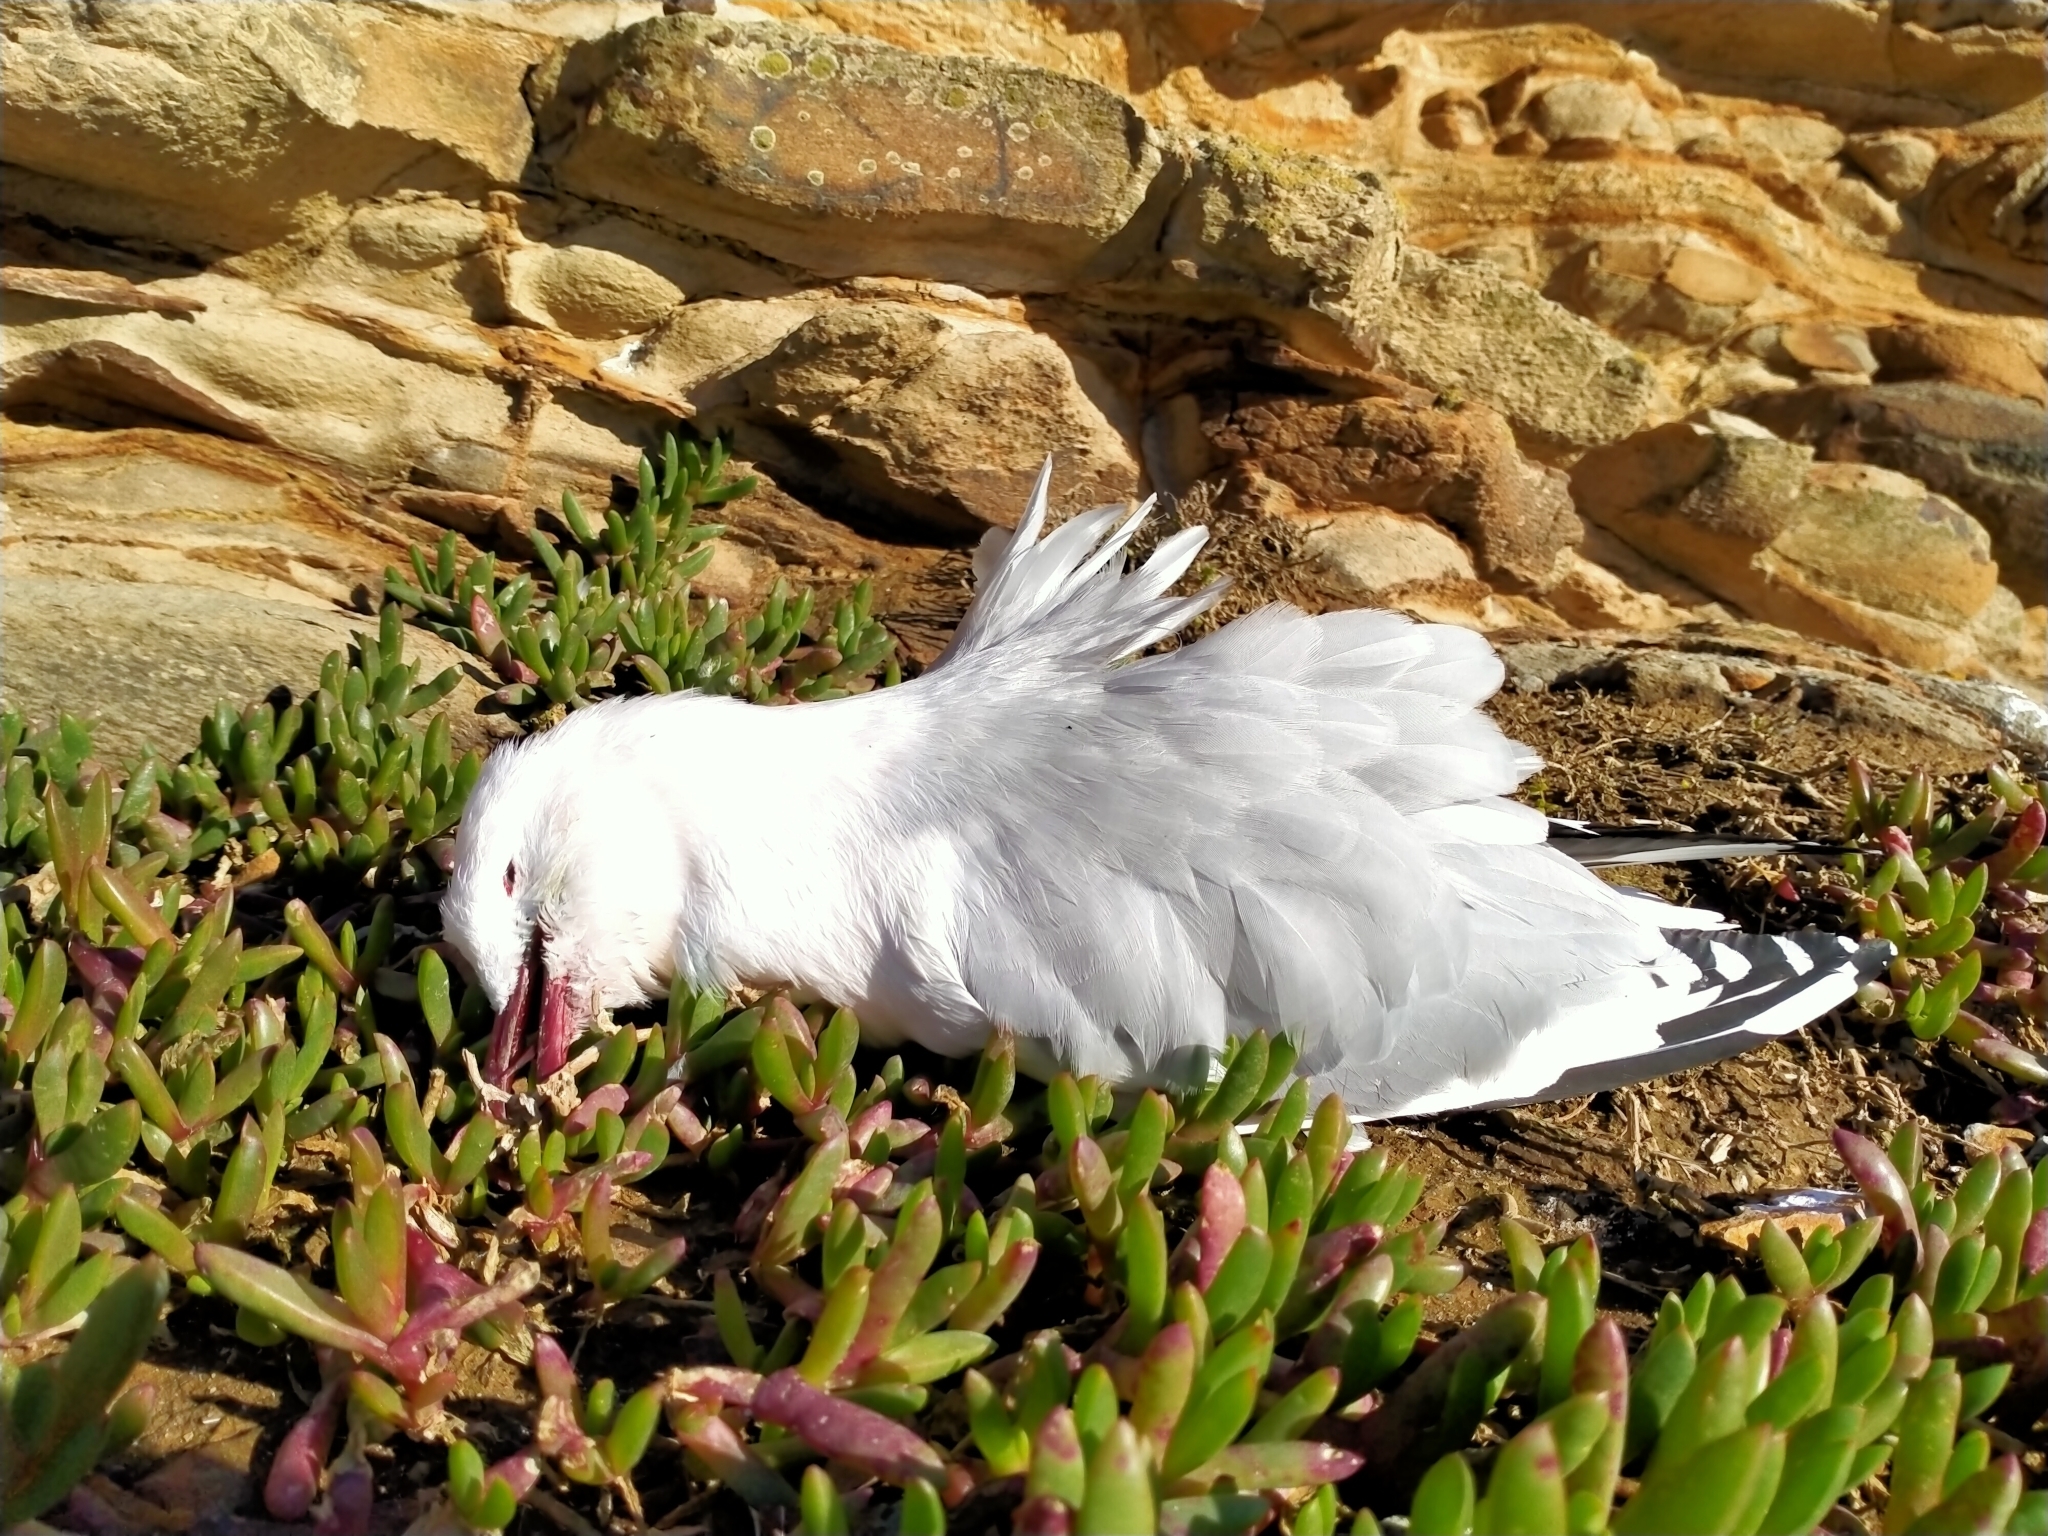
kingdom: Animalia
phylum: Chordata
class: Aves
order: Charadriiformes
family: Laridae
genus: Chroicocephalus
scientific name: Chroicocephalus novaehollandiae
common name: Silver gull
